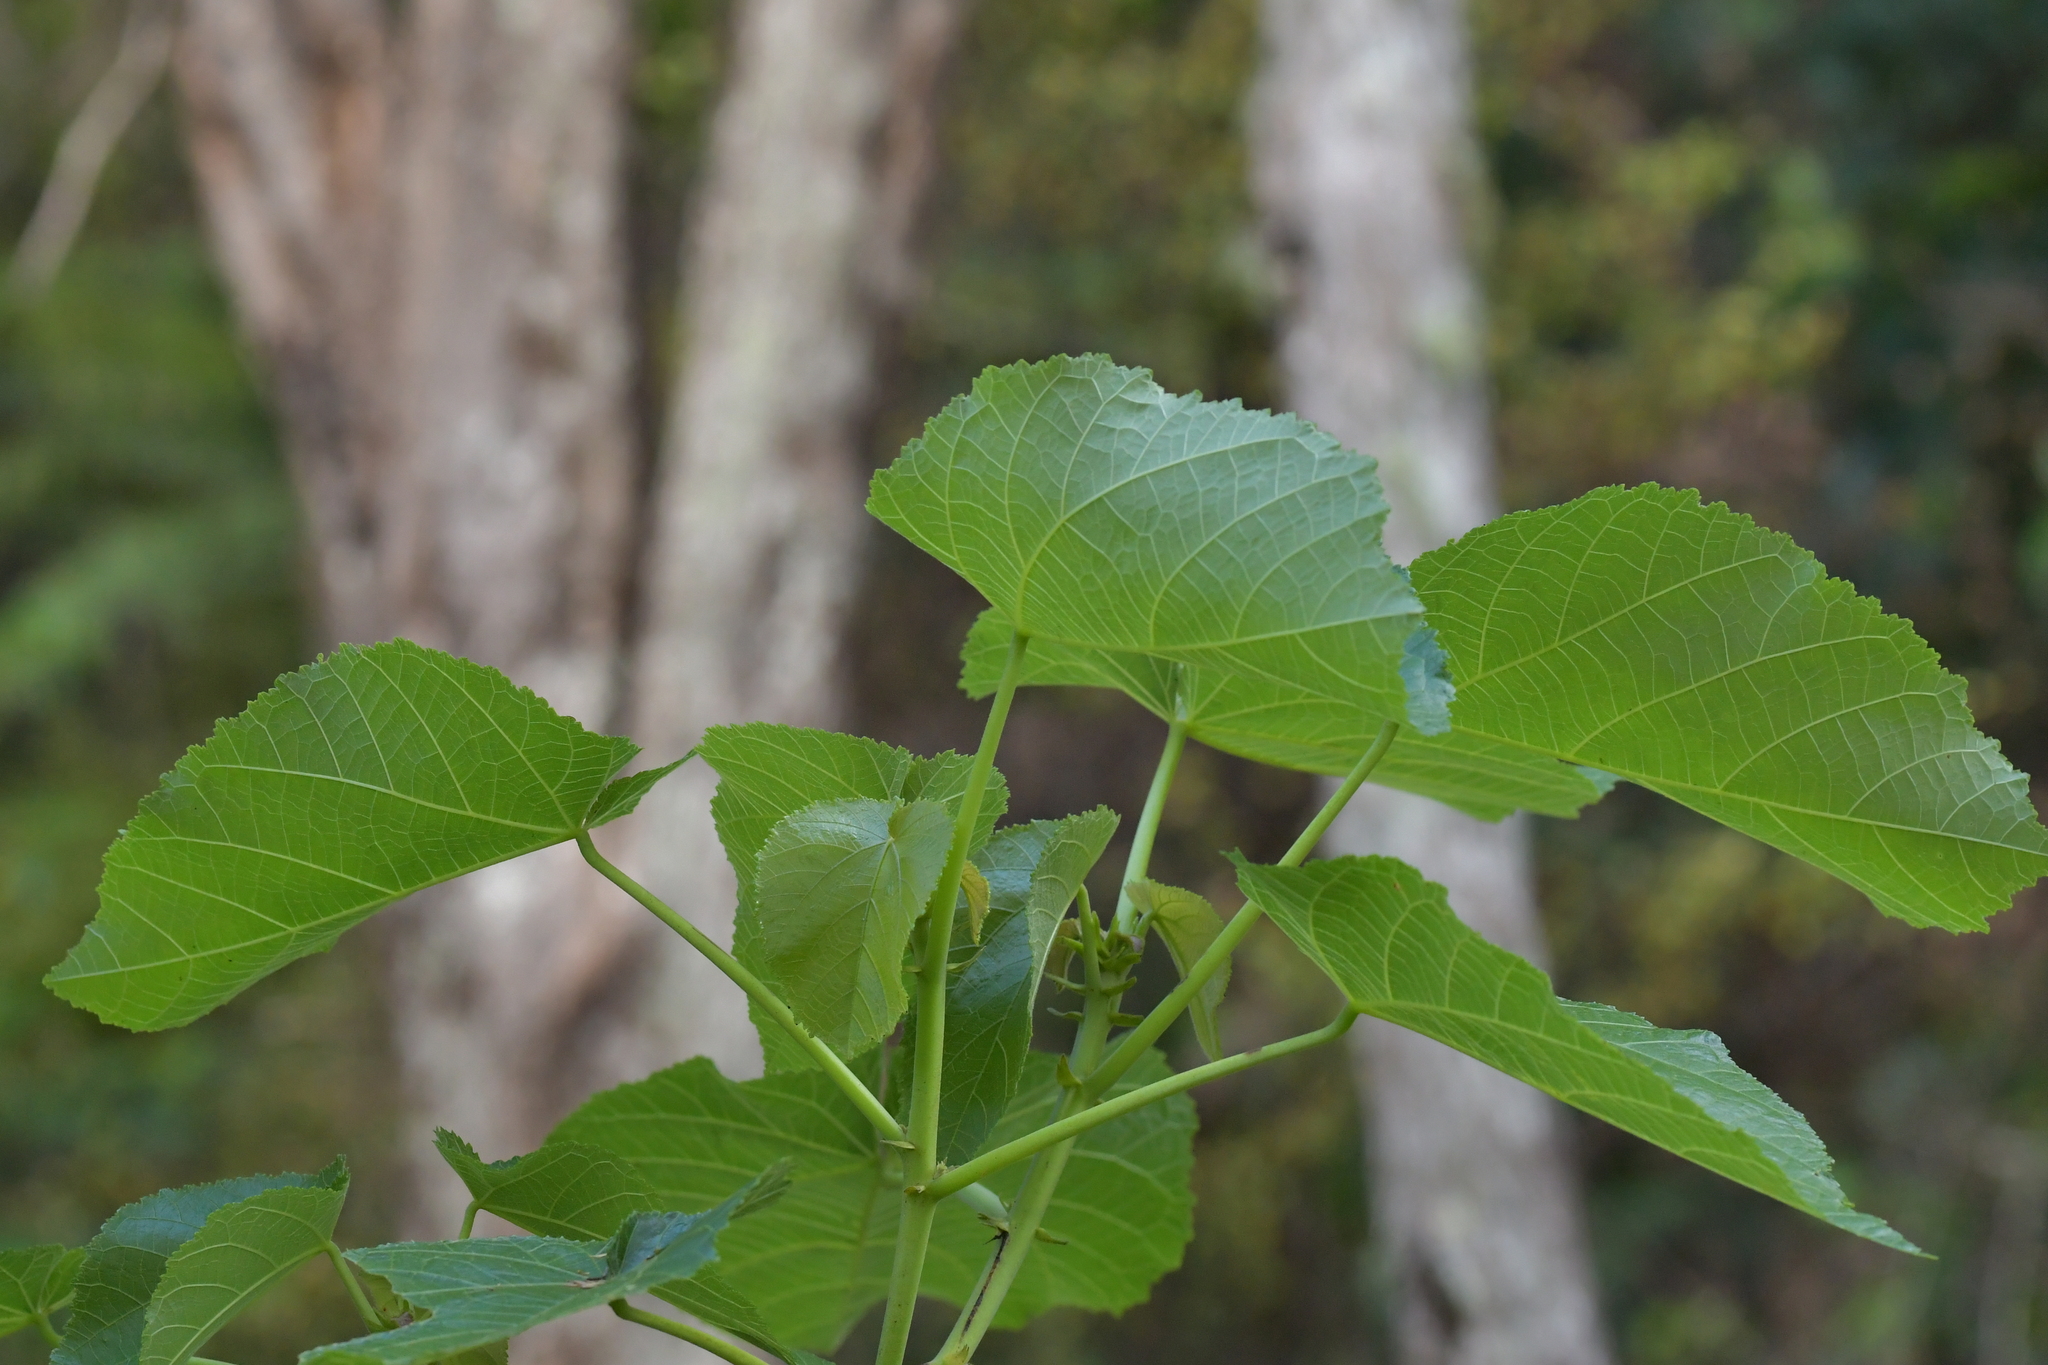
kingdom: Plantae
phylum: Tracheophyta
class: Magnoliopsida
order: Malvales
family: Malvaceae
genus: Entelea
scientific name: Entelea arborescens
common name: New zealand-mulberry
